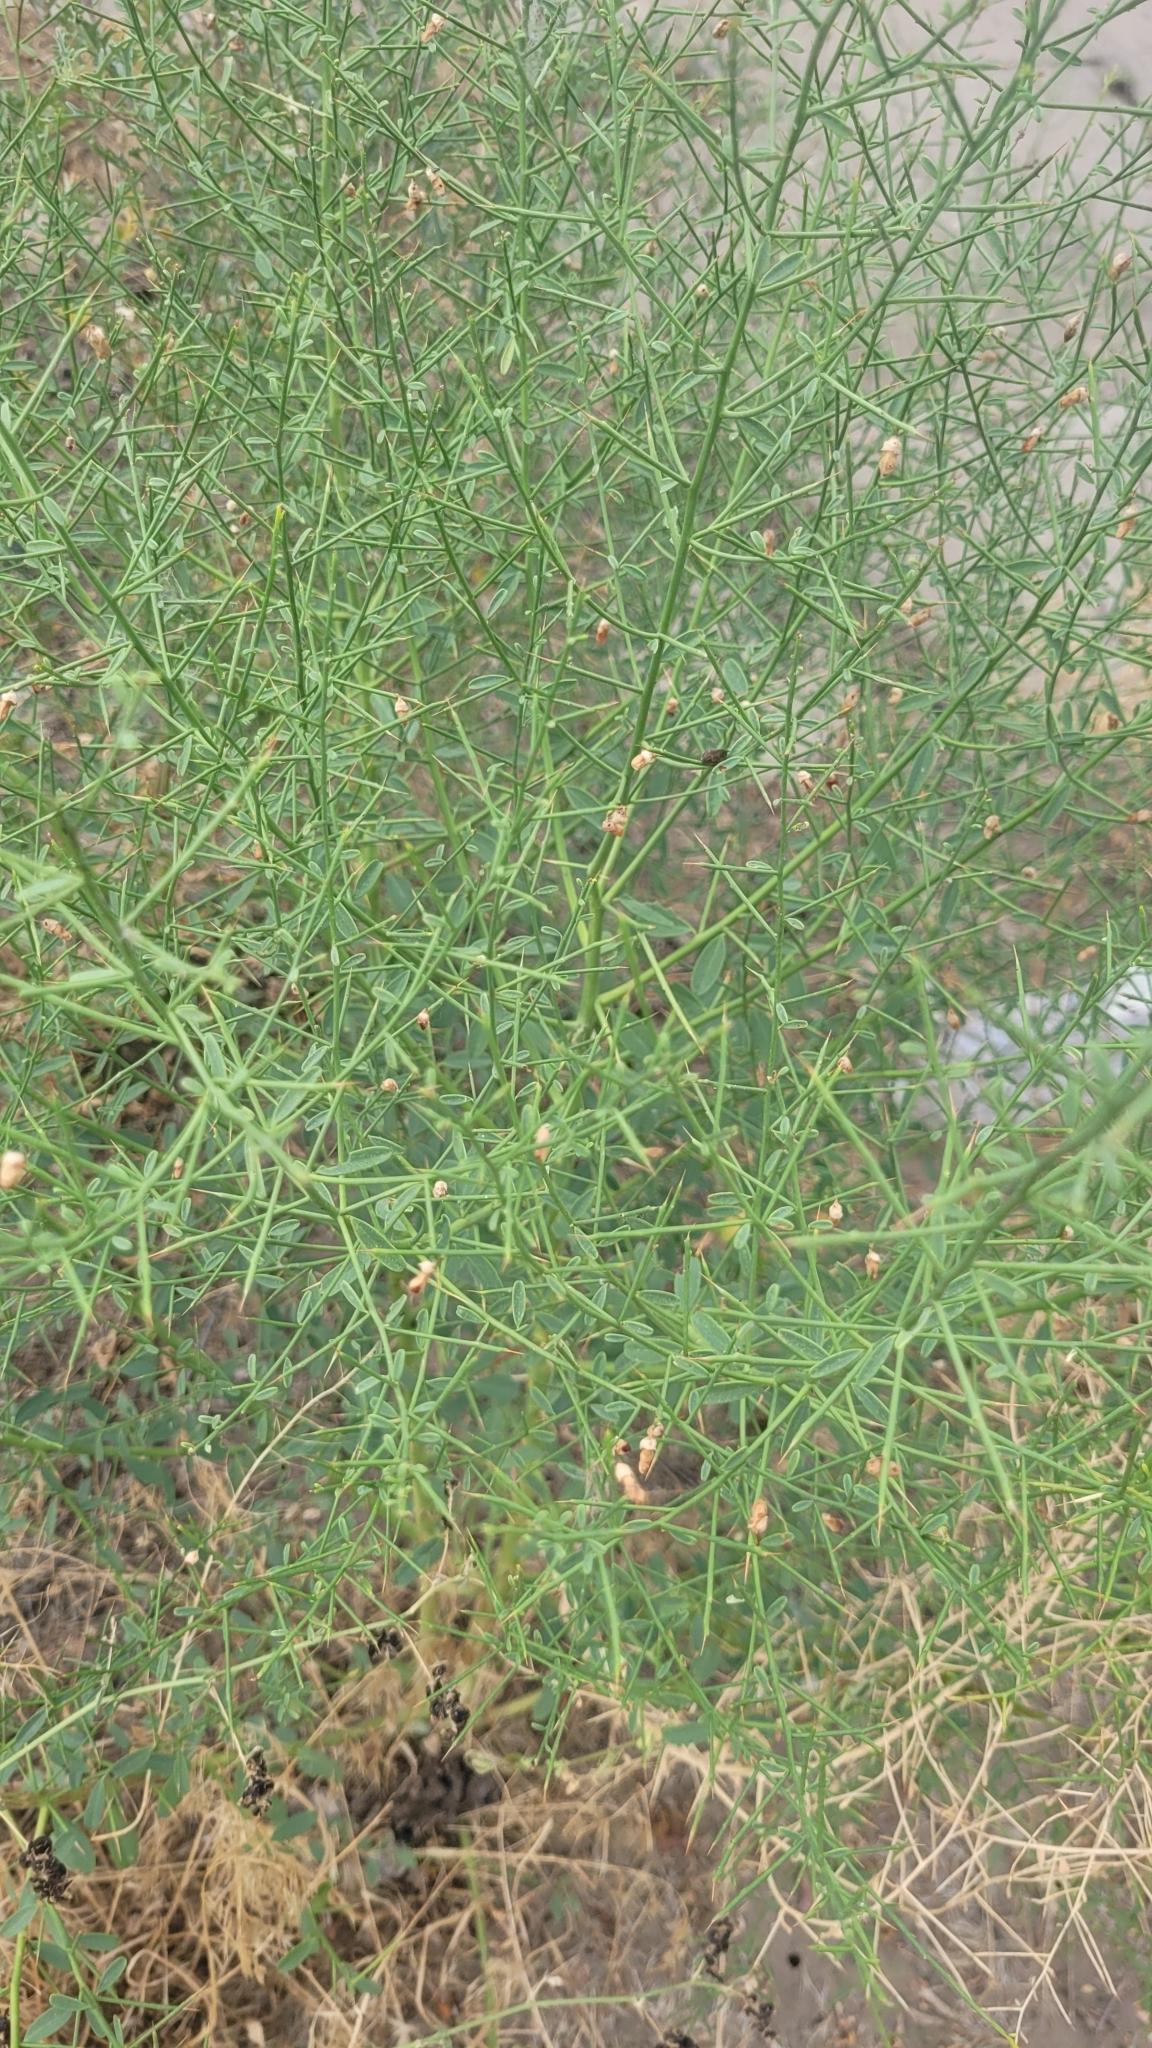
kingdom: Plantae
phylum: Tracheophyta
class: Magnoliopsida
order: Fabales
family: Fabaceae
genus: Alhagi
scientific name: Alhagi pseudalhagi
